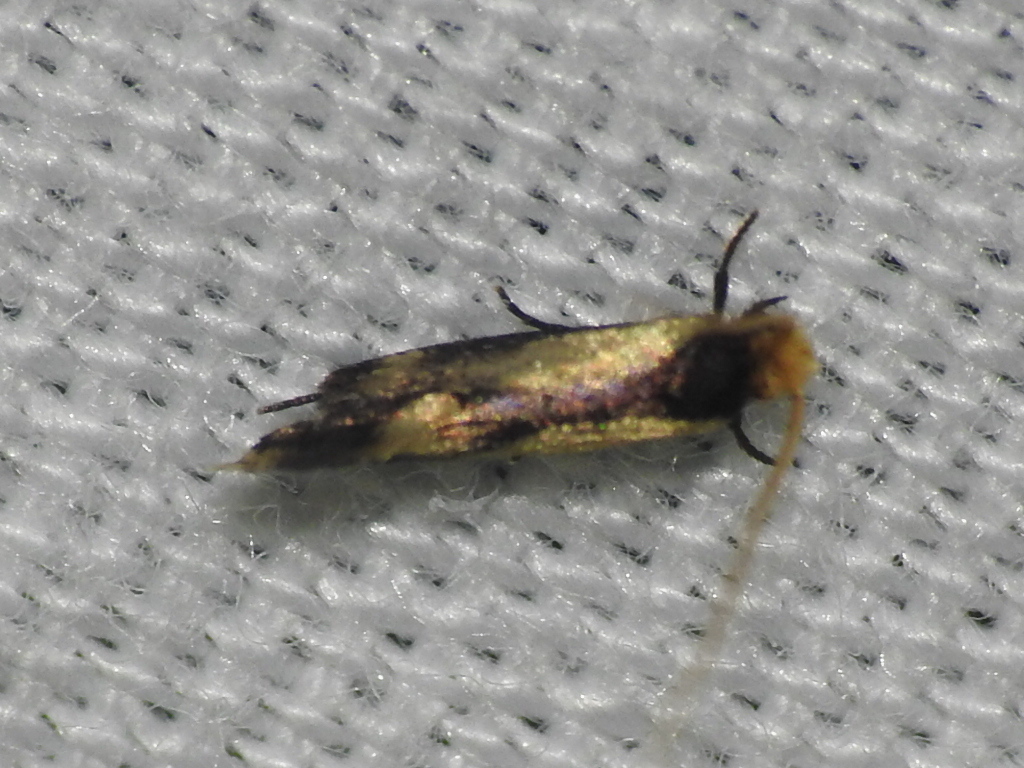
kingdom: Animalia
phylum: Arthropoda
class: Insecta
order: Lepidoptera
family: Meessiidae
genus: Isocorypha
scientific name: Isocorypha mediostriatella
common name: Old gold isocorypha moth
